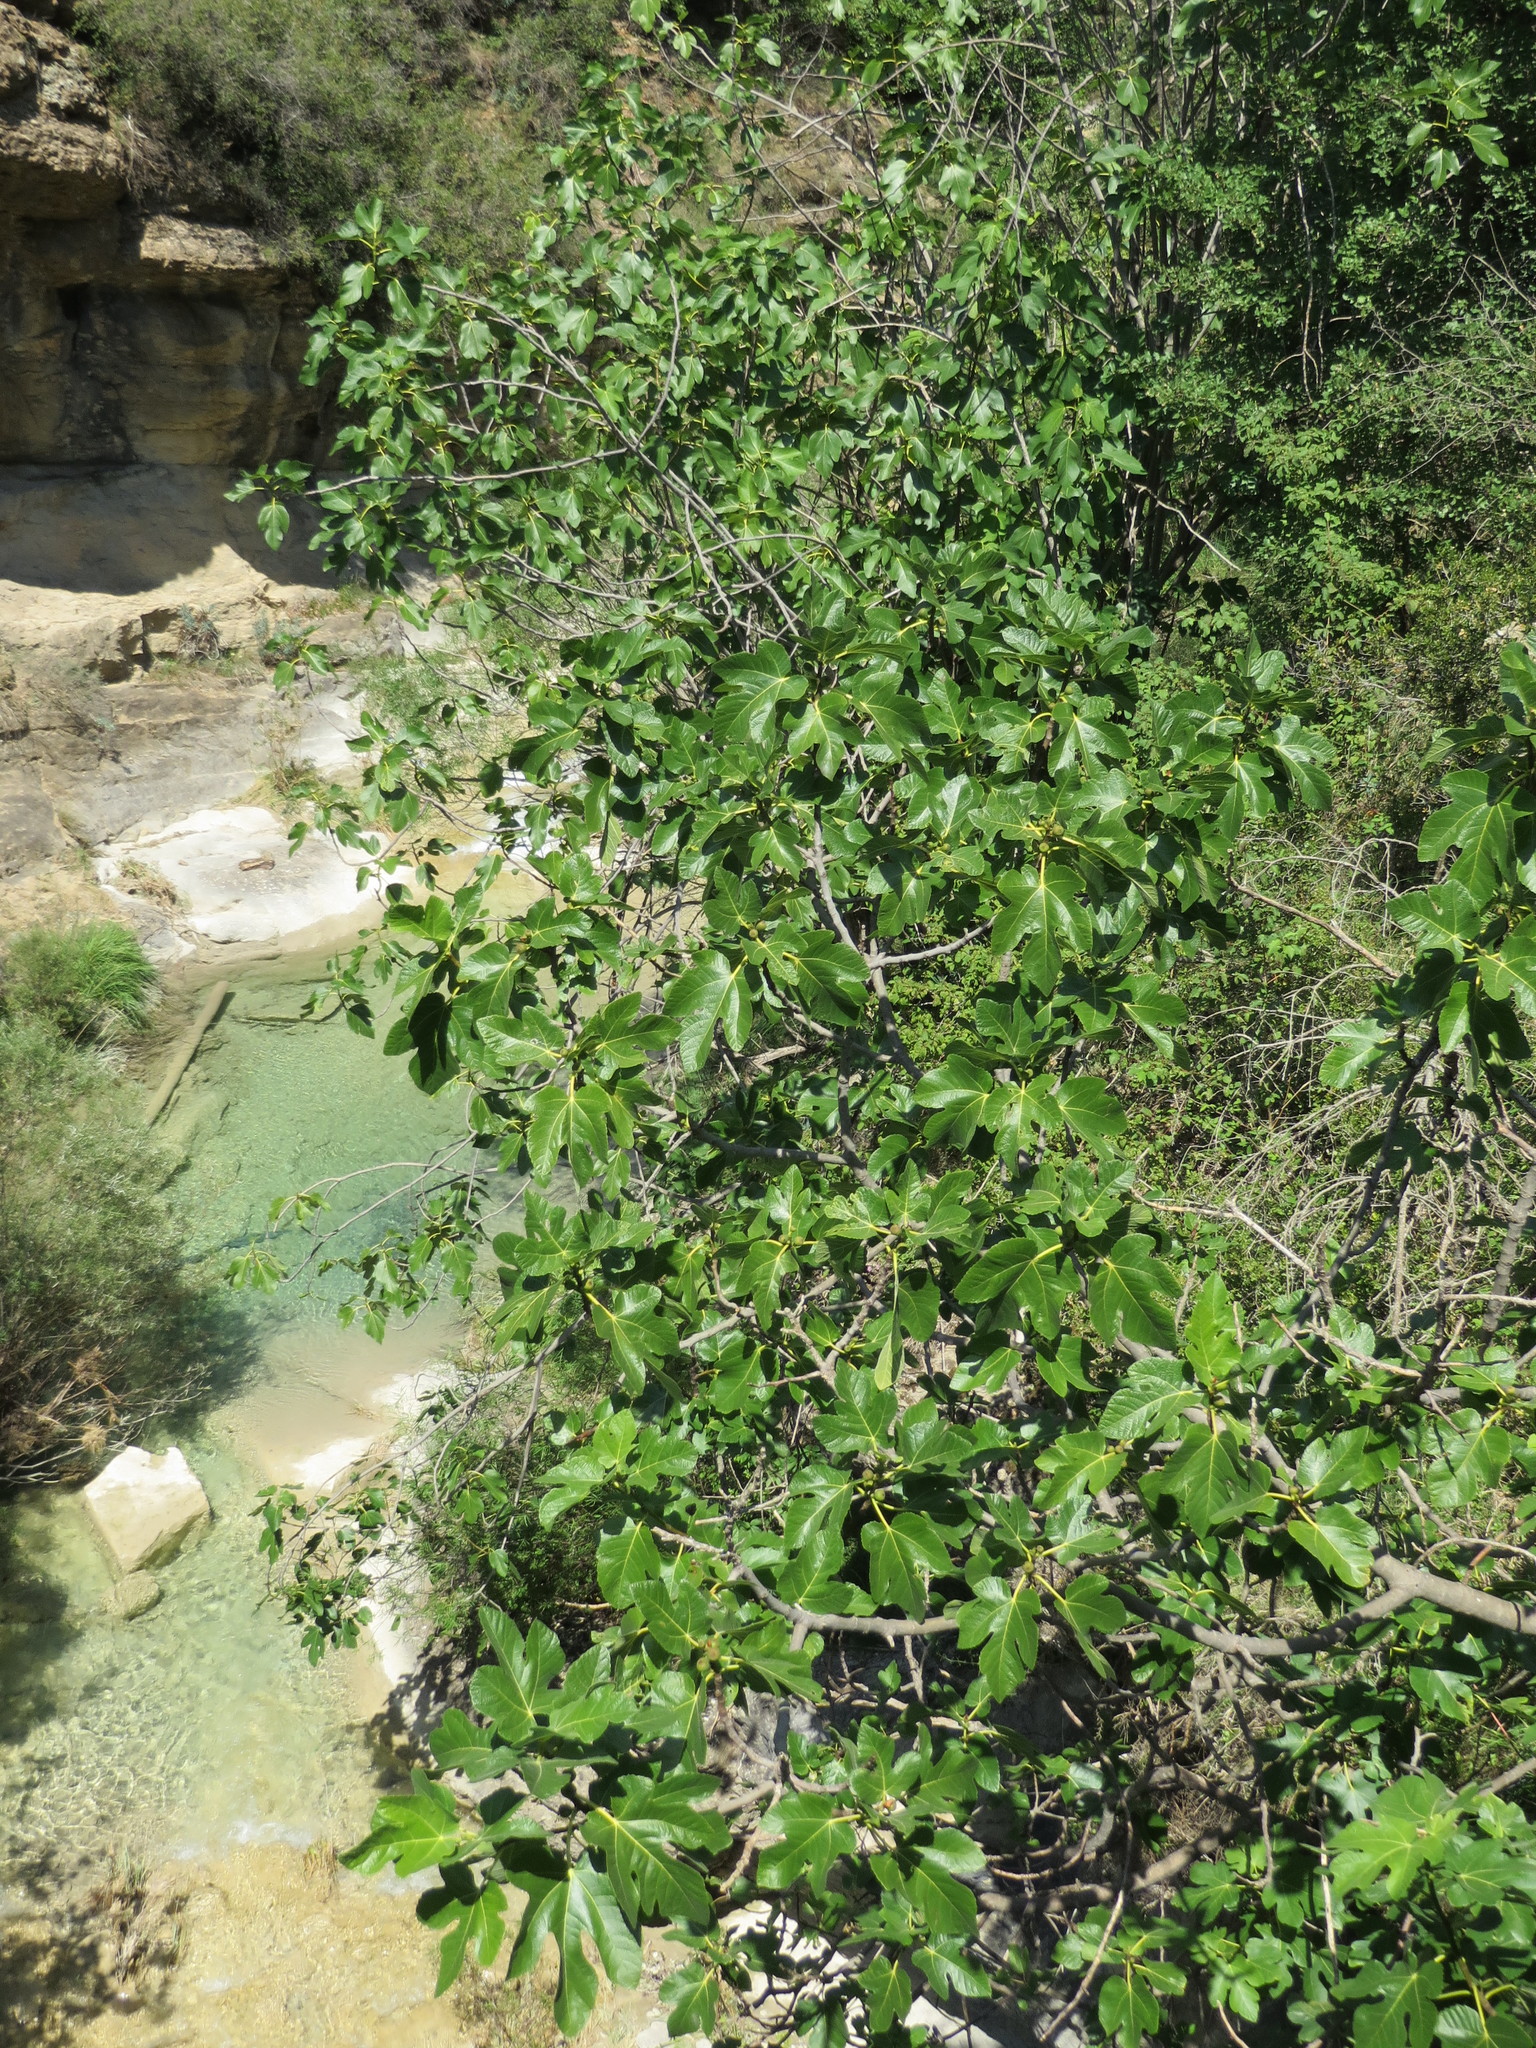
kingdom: Plantae
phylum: Tracheophyta
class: Magnoliopsida
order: Rosales
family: Moraceae
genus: Ficus
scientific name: Ficus carica
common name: Fig
